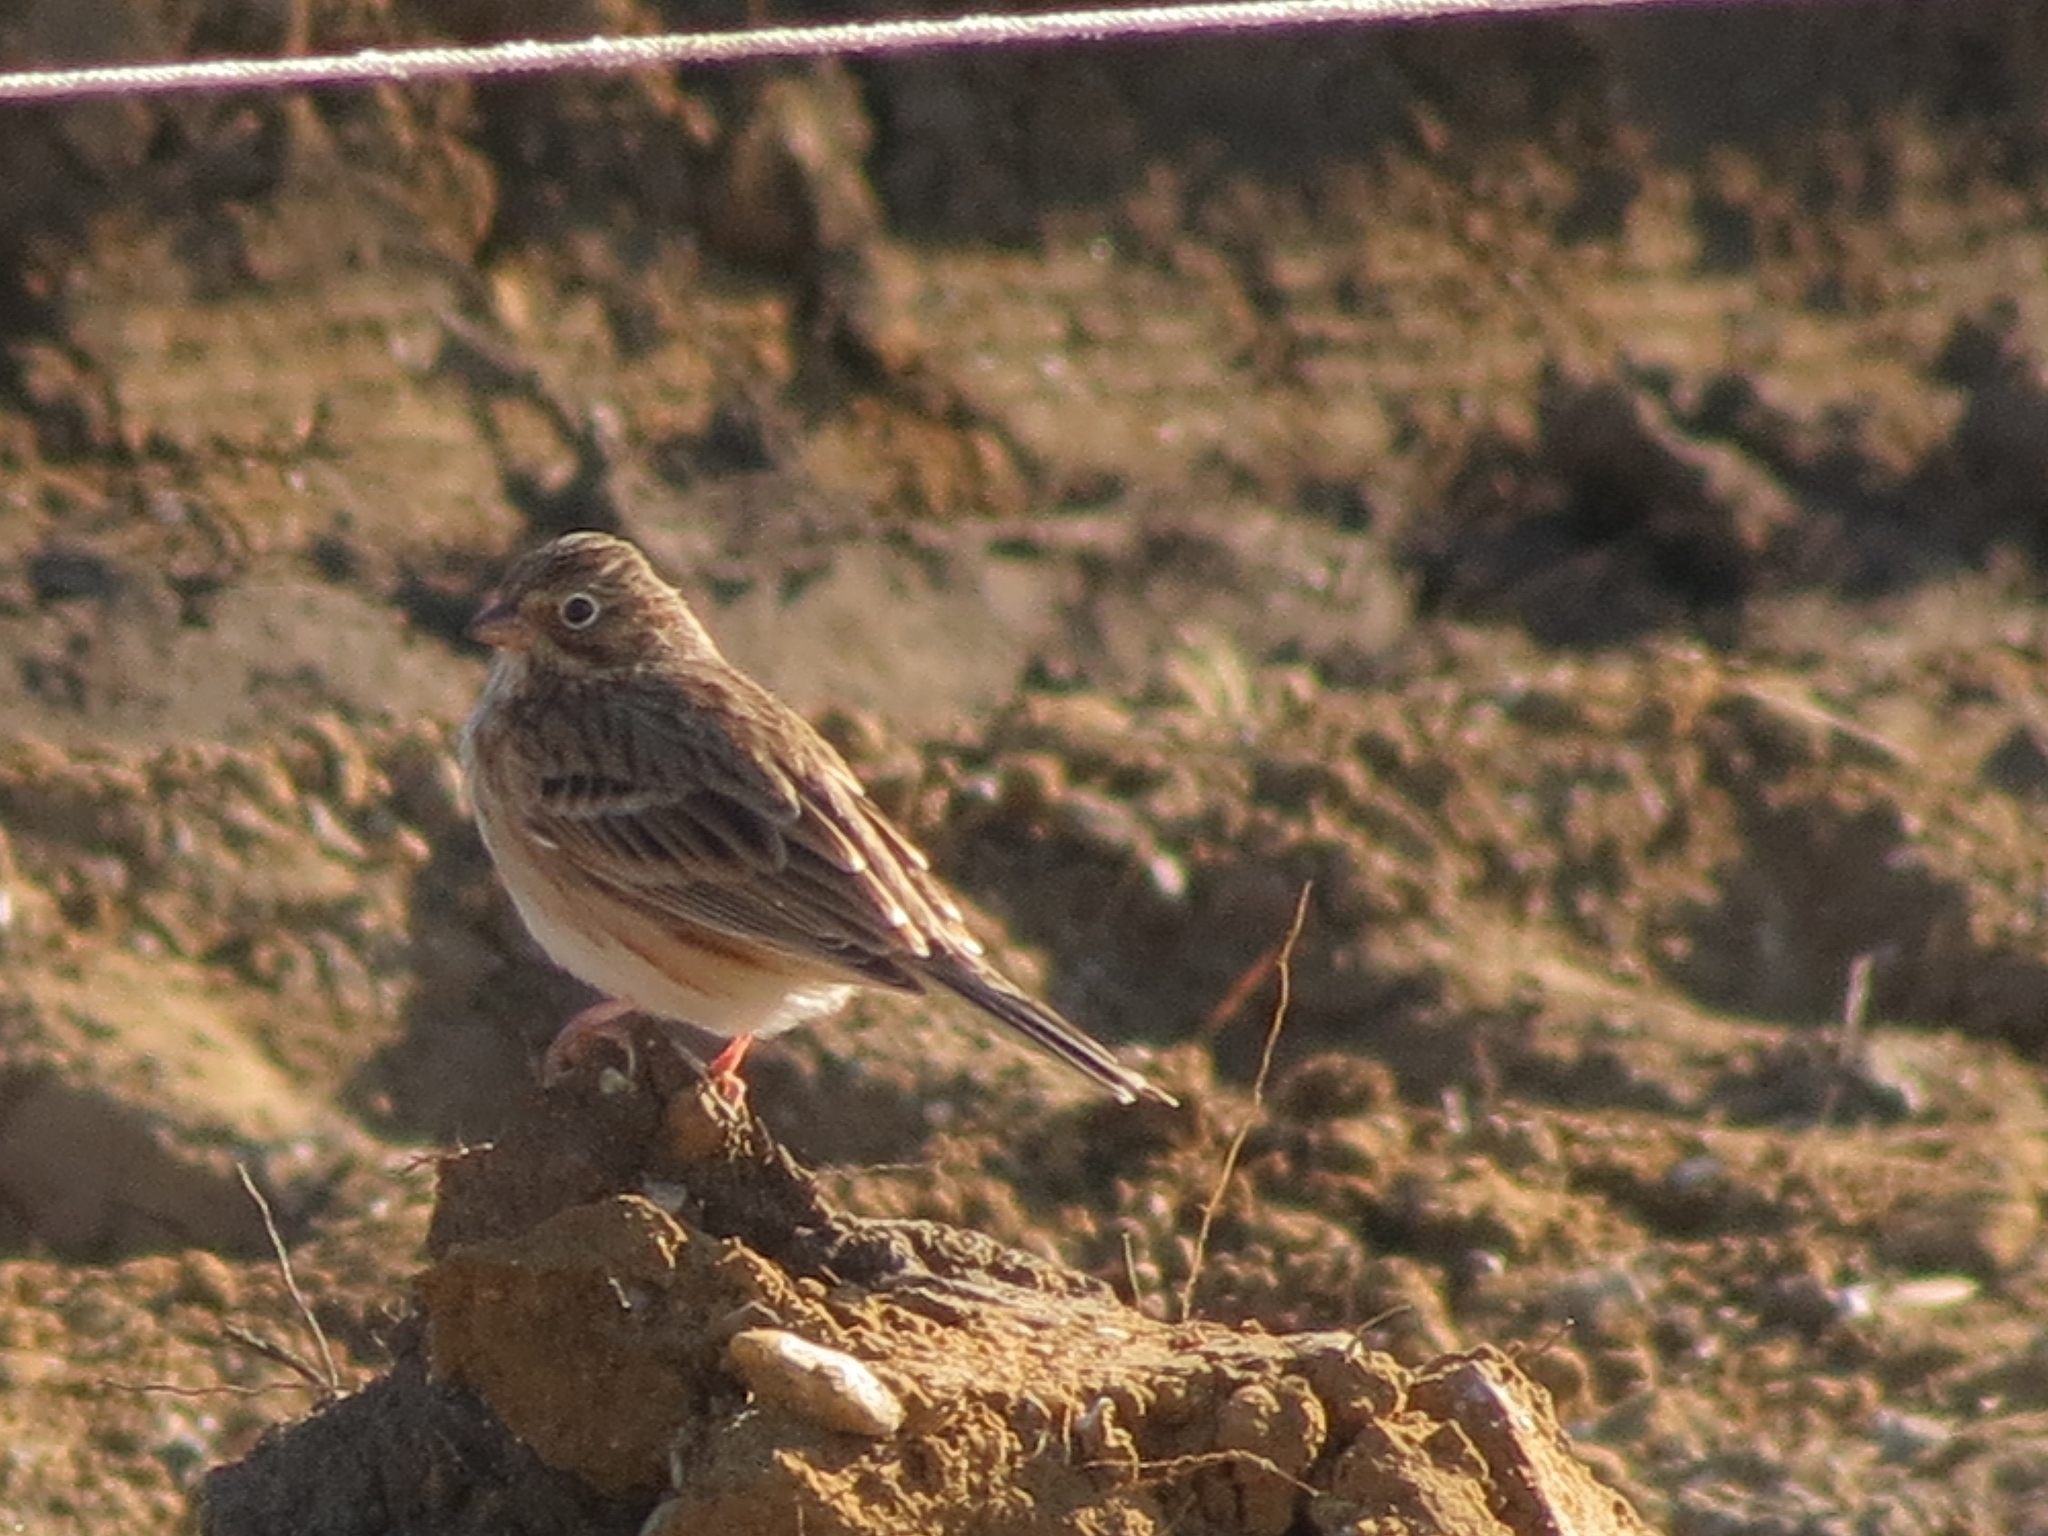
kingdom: Animalia
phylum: Chordata
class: Aves
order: Passeriformes
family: Passerellidae
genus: Pooecetes
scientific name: Pooecetes gramineus
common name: Vesper sparrow
